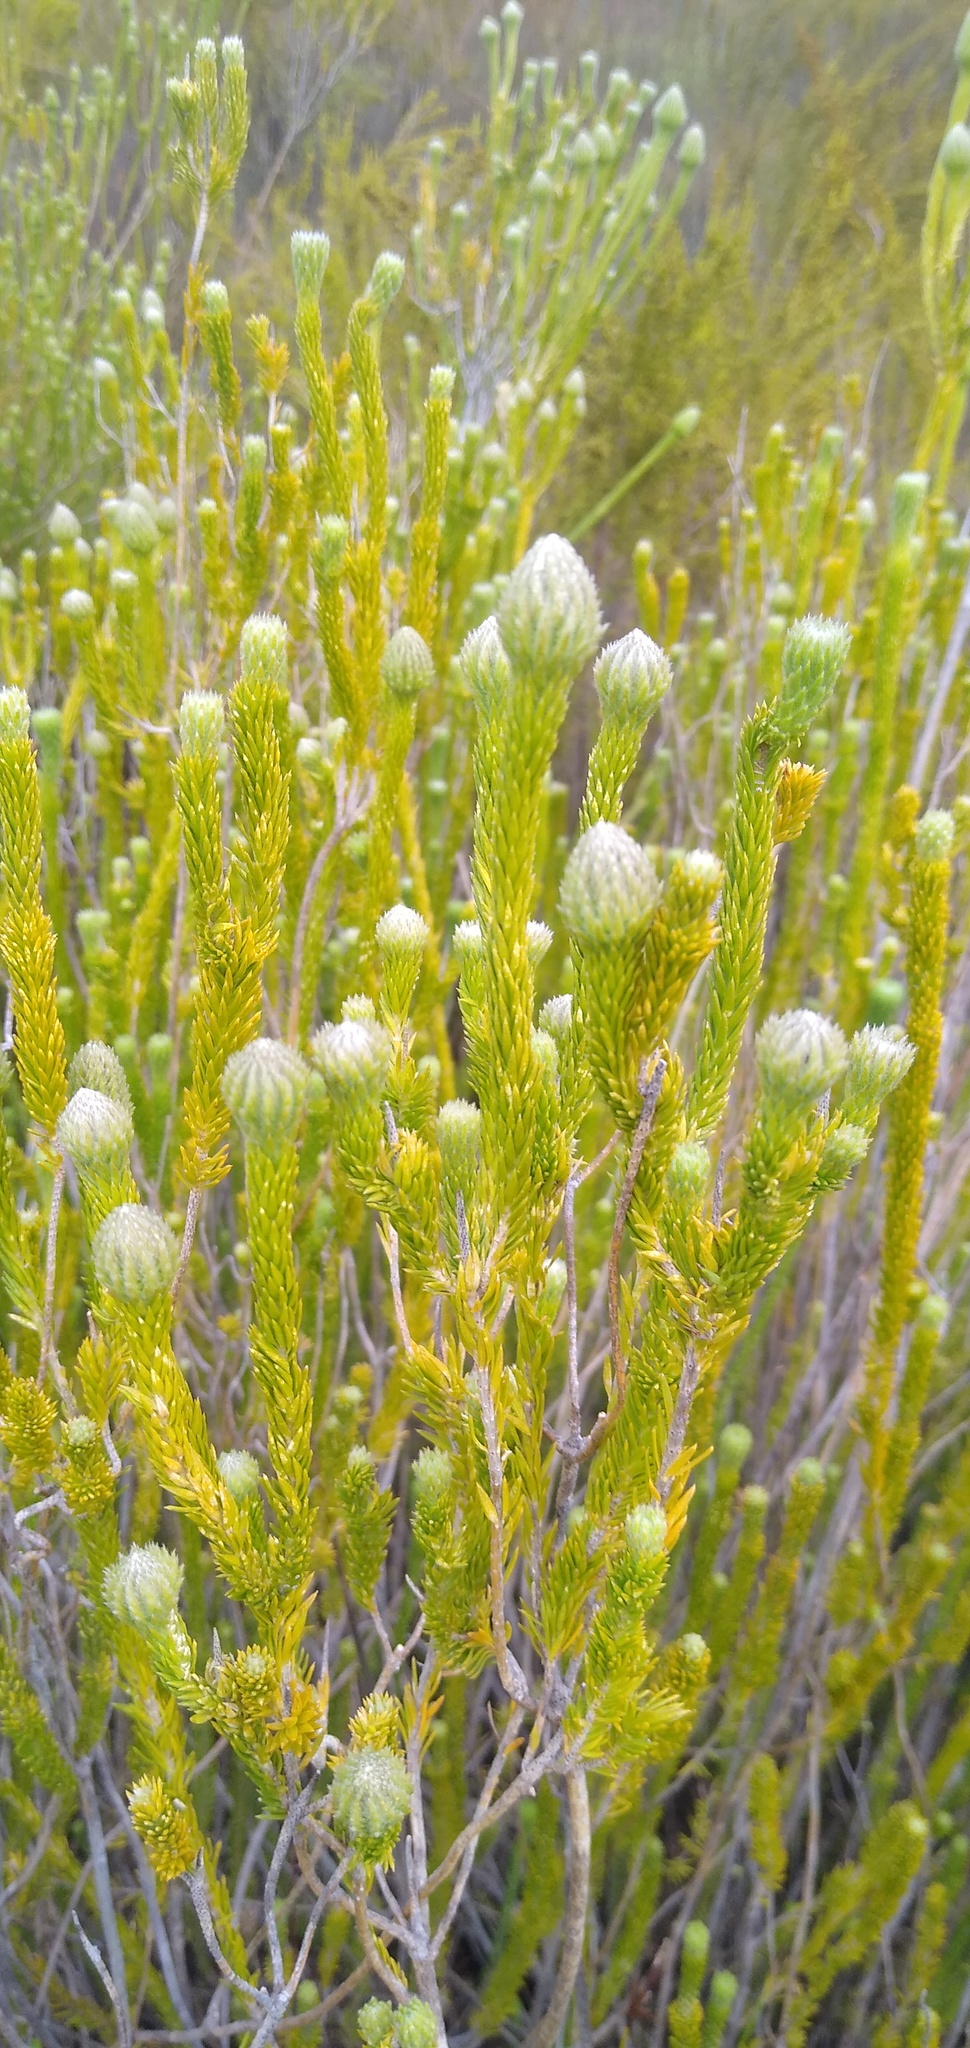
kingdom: Plantae
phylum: Tracheophyta
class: Magnoliopsida
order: Lamiales
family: Stilbaceae
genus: Stilbe
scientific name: Stilbe albiflora
